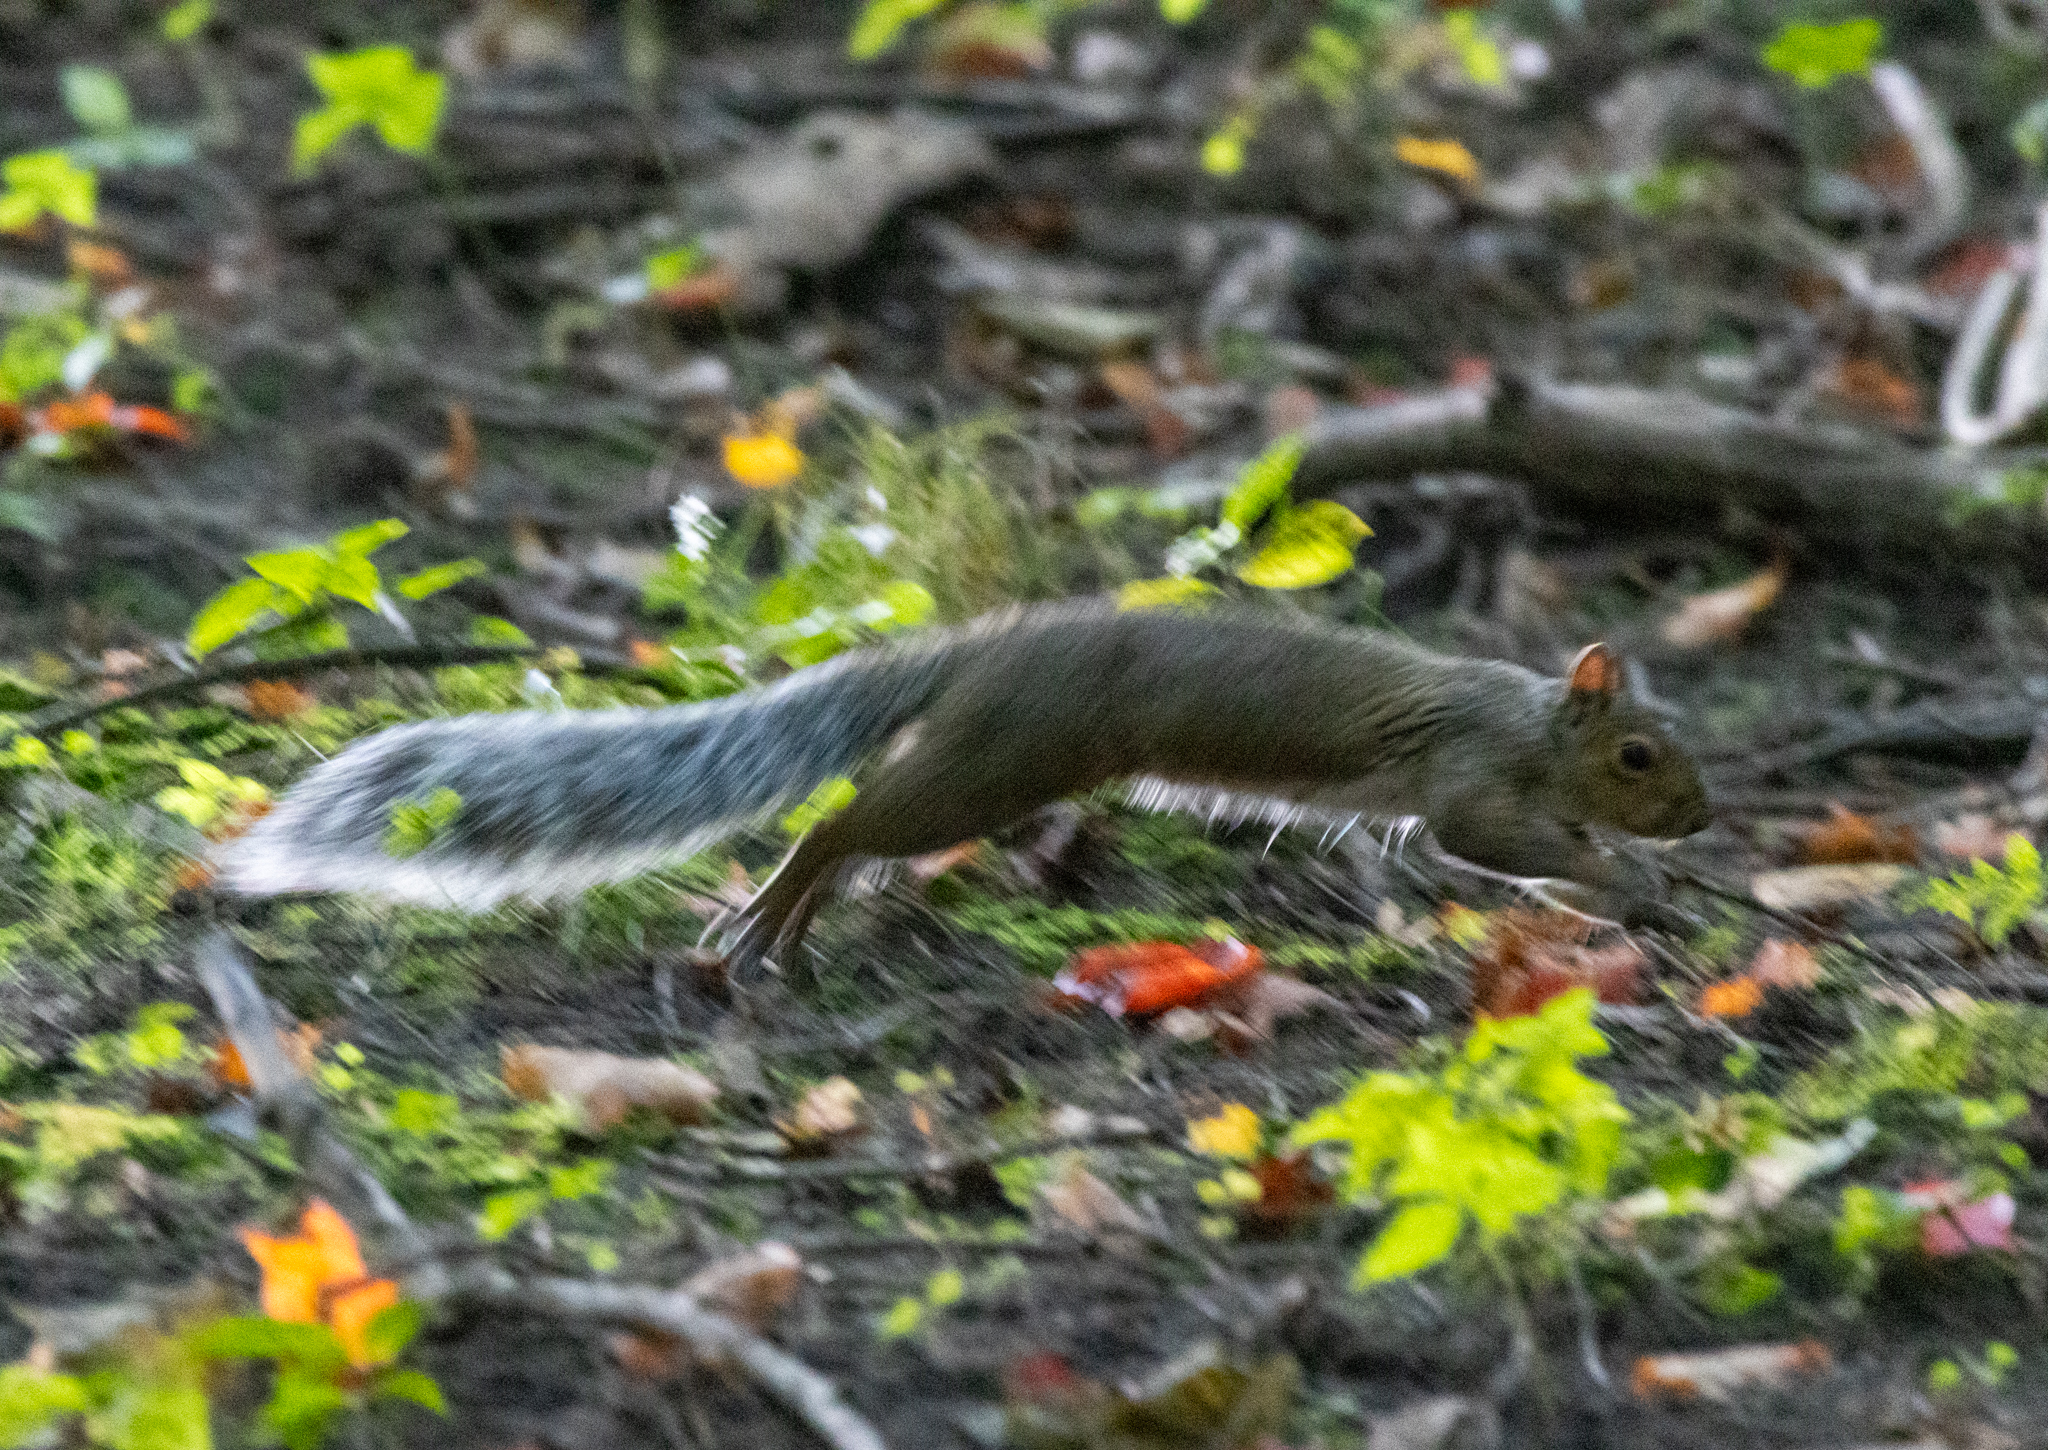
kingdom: Animalia
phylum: Chordata
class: Mammalia
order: Rodentia
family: Sciuridae
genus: Sciurus
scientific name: Sciurus carolinensis
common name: Eastern gray squirrel
